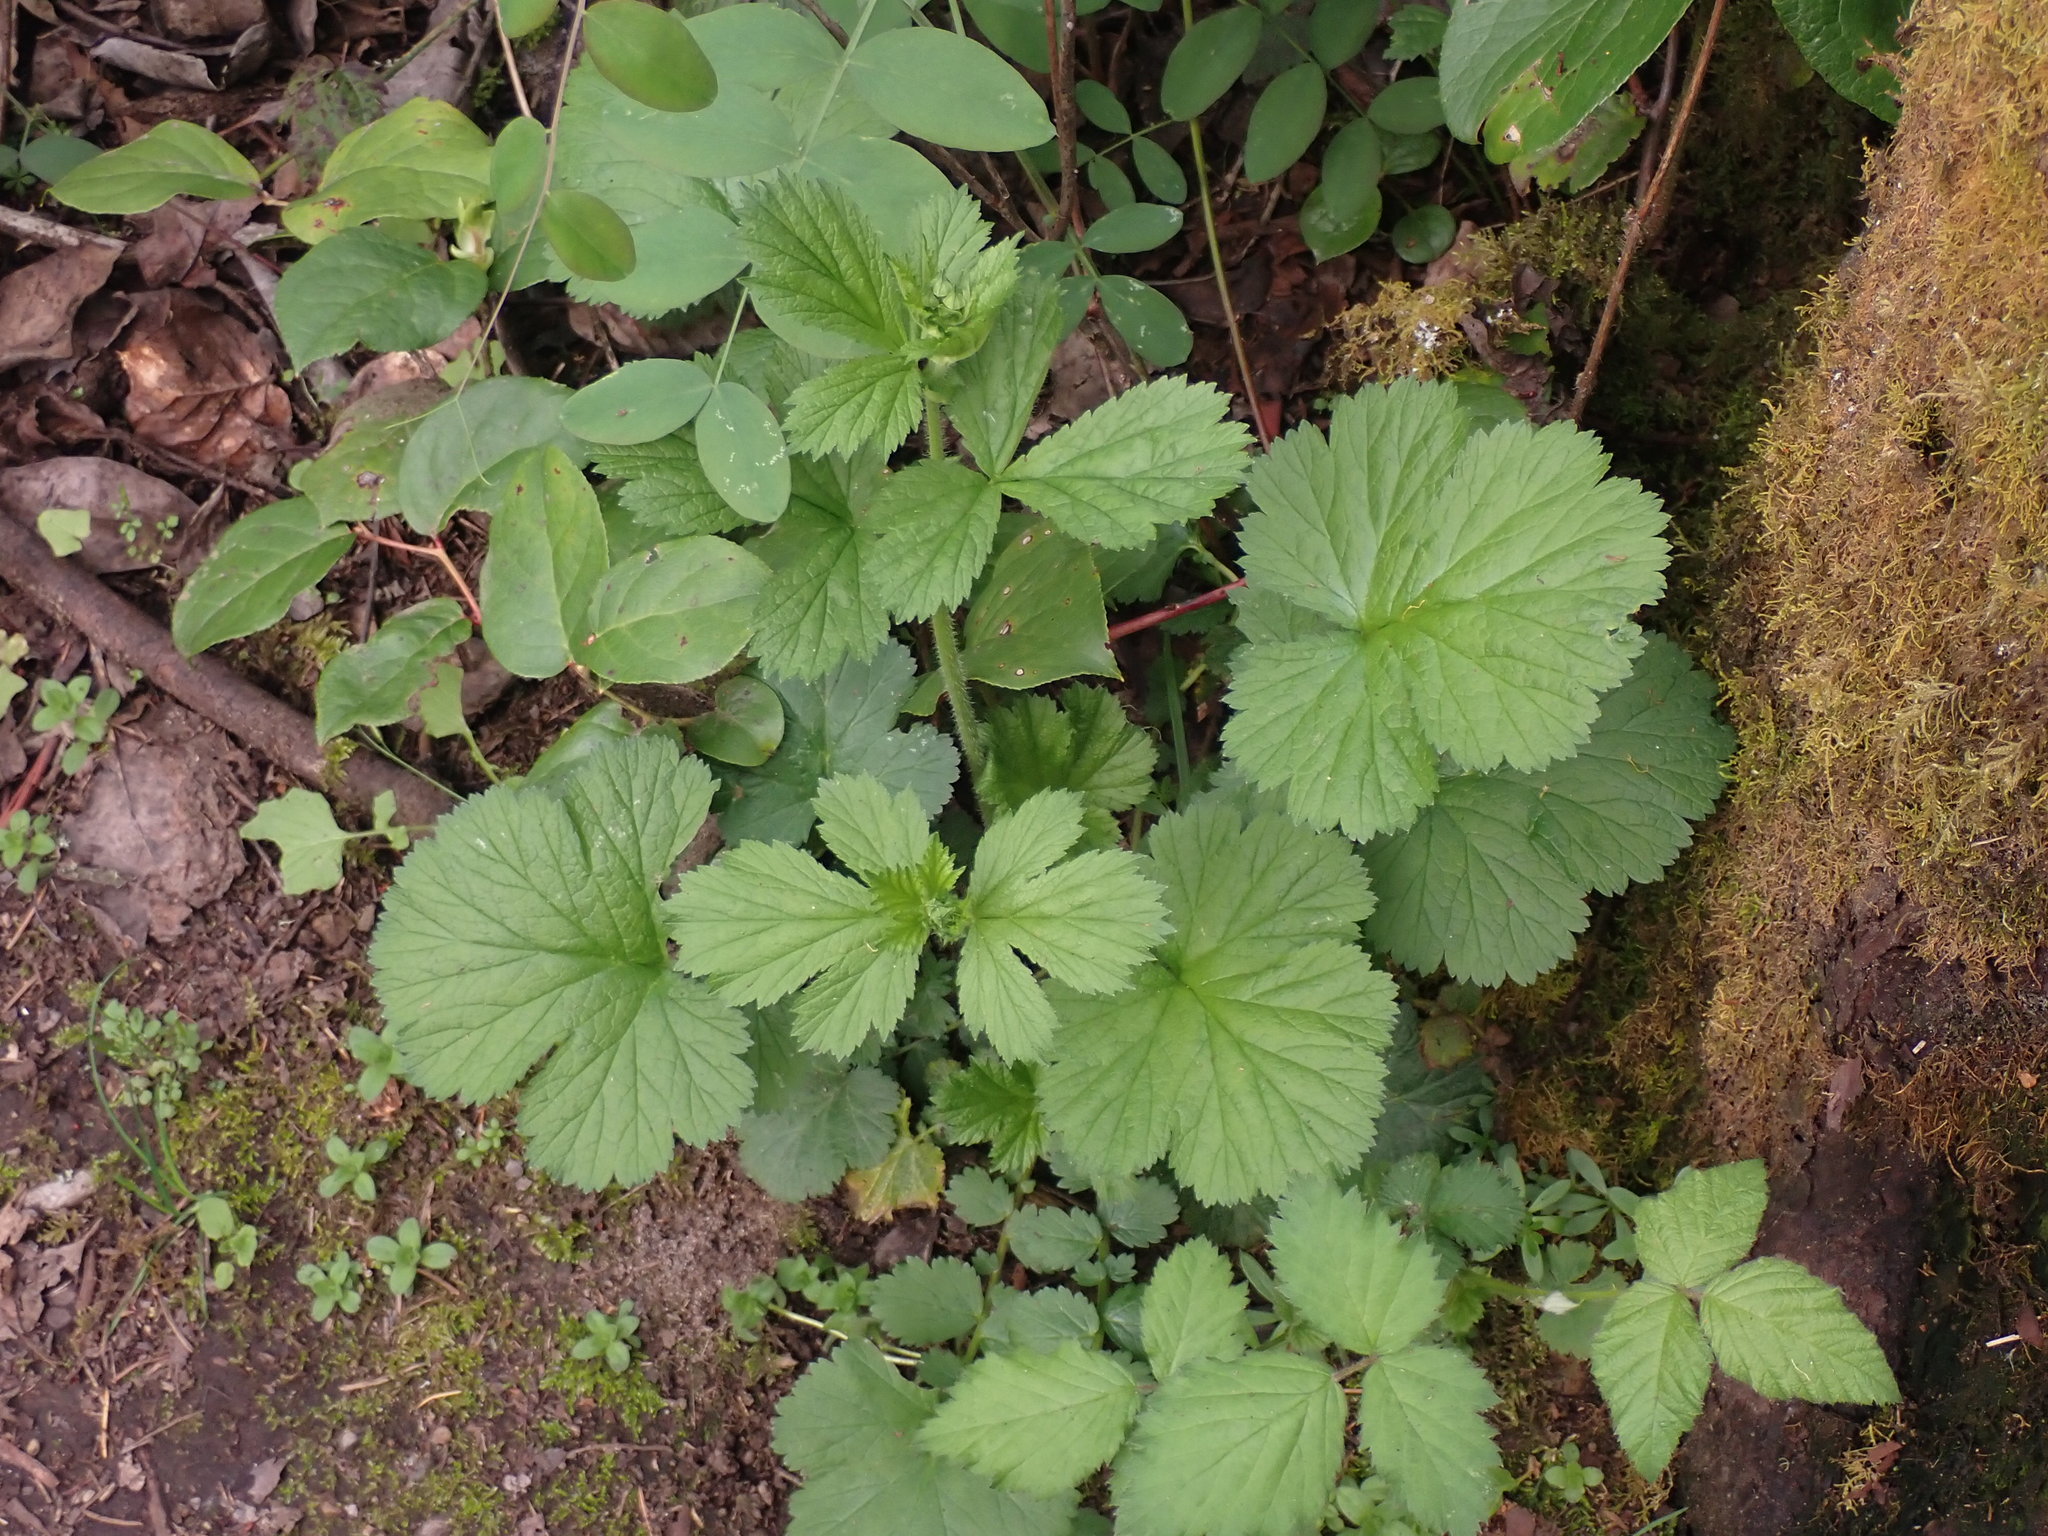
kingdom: Plantae
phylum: Tracheophyta
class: Magnoliopsida
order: Rosales
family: Rosaceae
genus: Geum
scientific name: Geum macrophyllum
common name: Large-leaved avens
